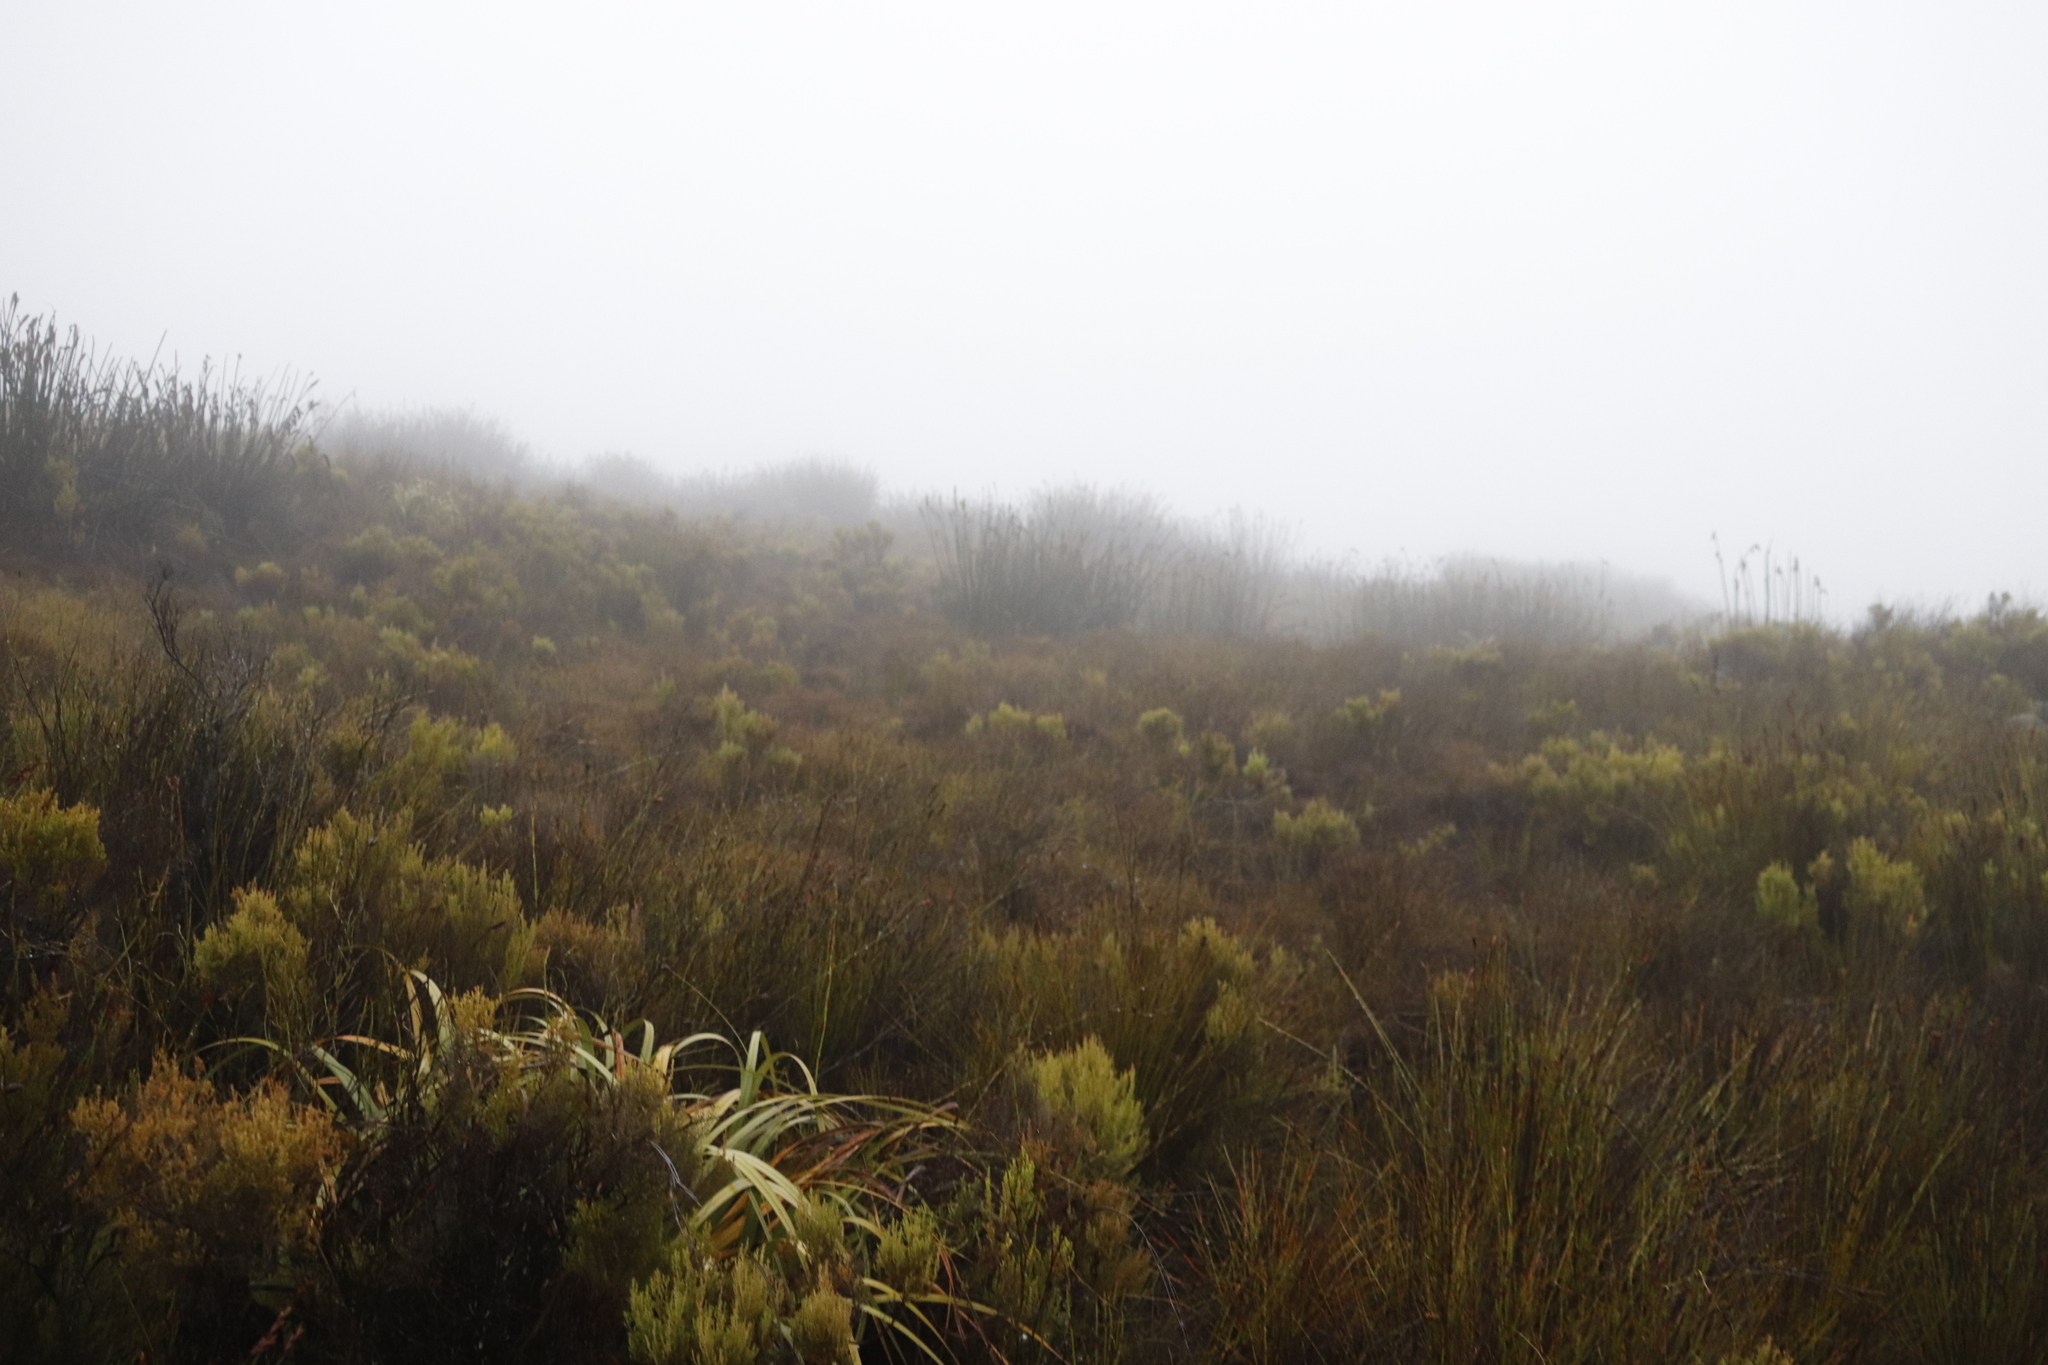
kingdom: Plantae
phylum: Tracheophyta
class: Liliopsida
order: Poales
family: Restionaceae
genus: Elegia
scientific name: Elegia mucronata
